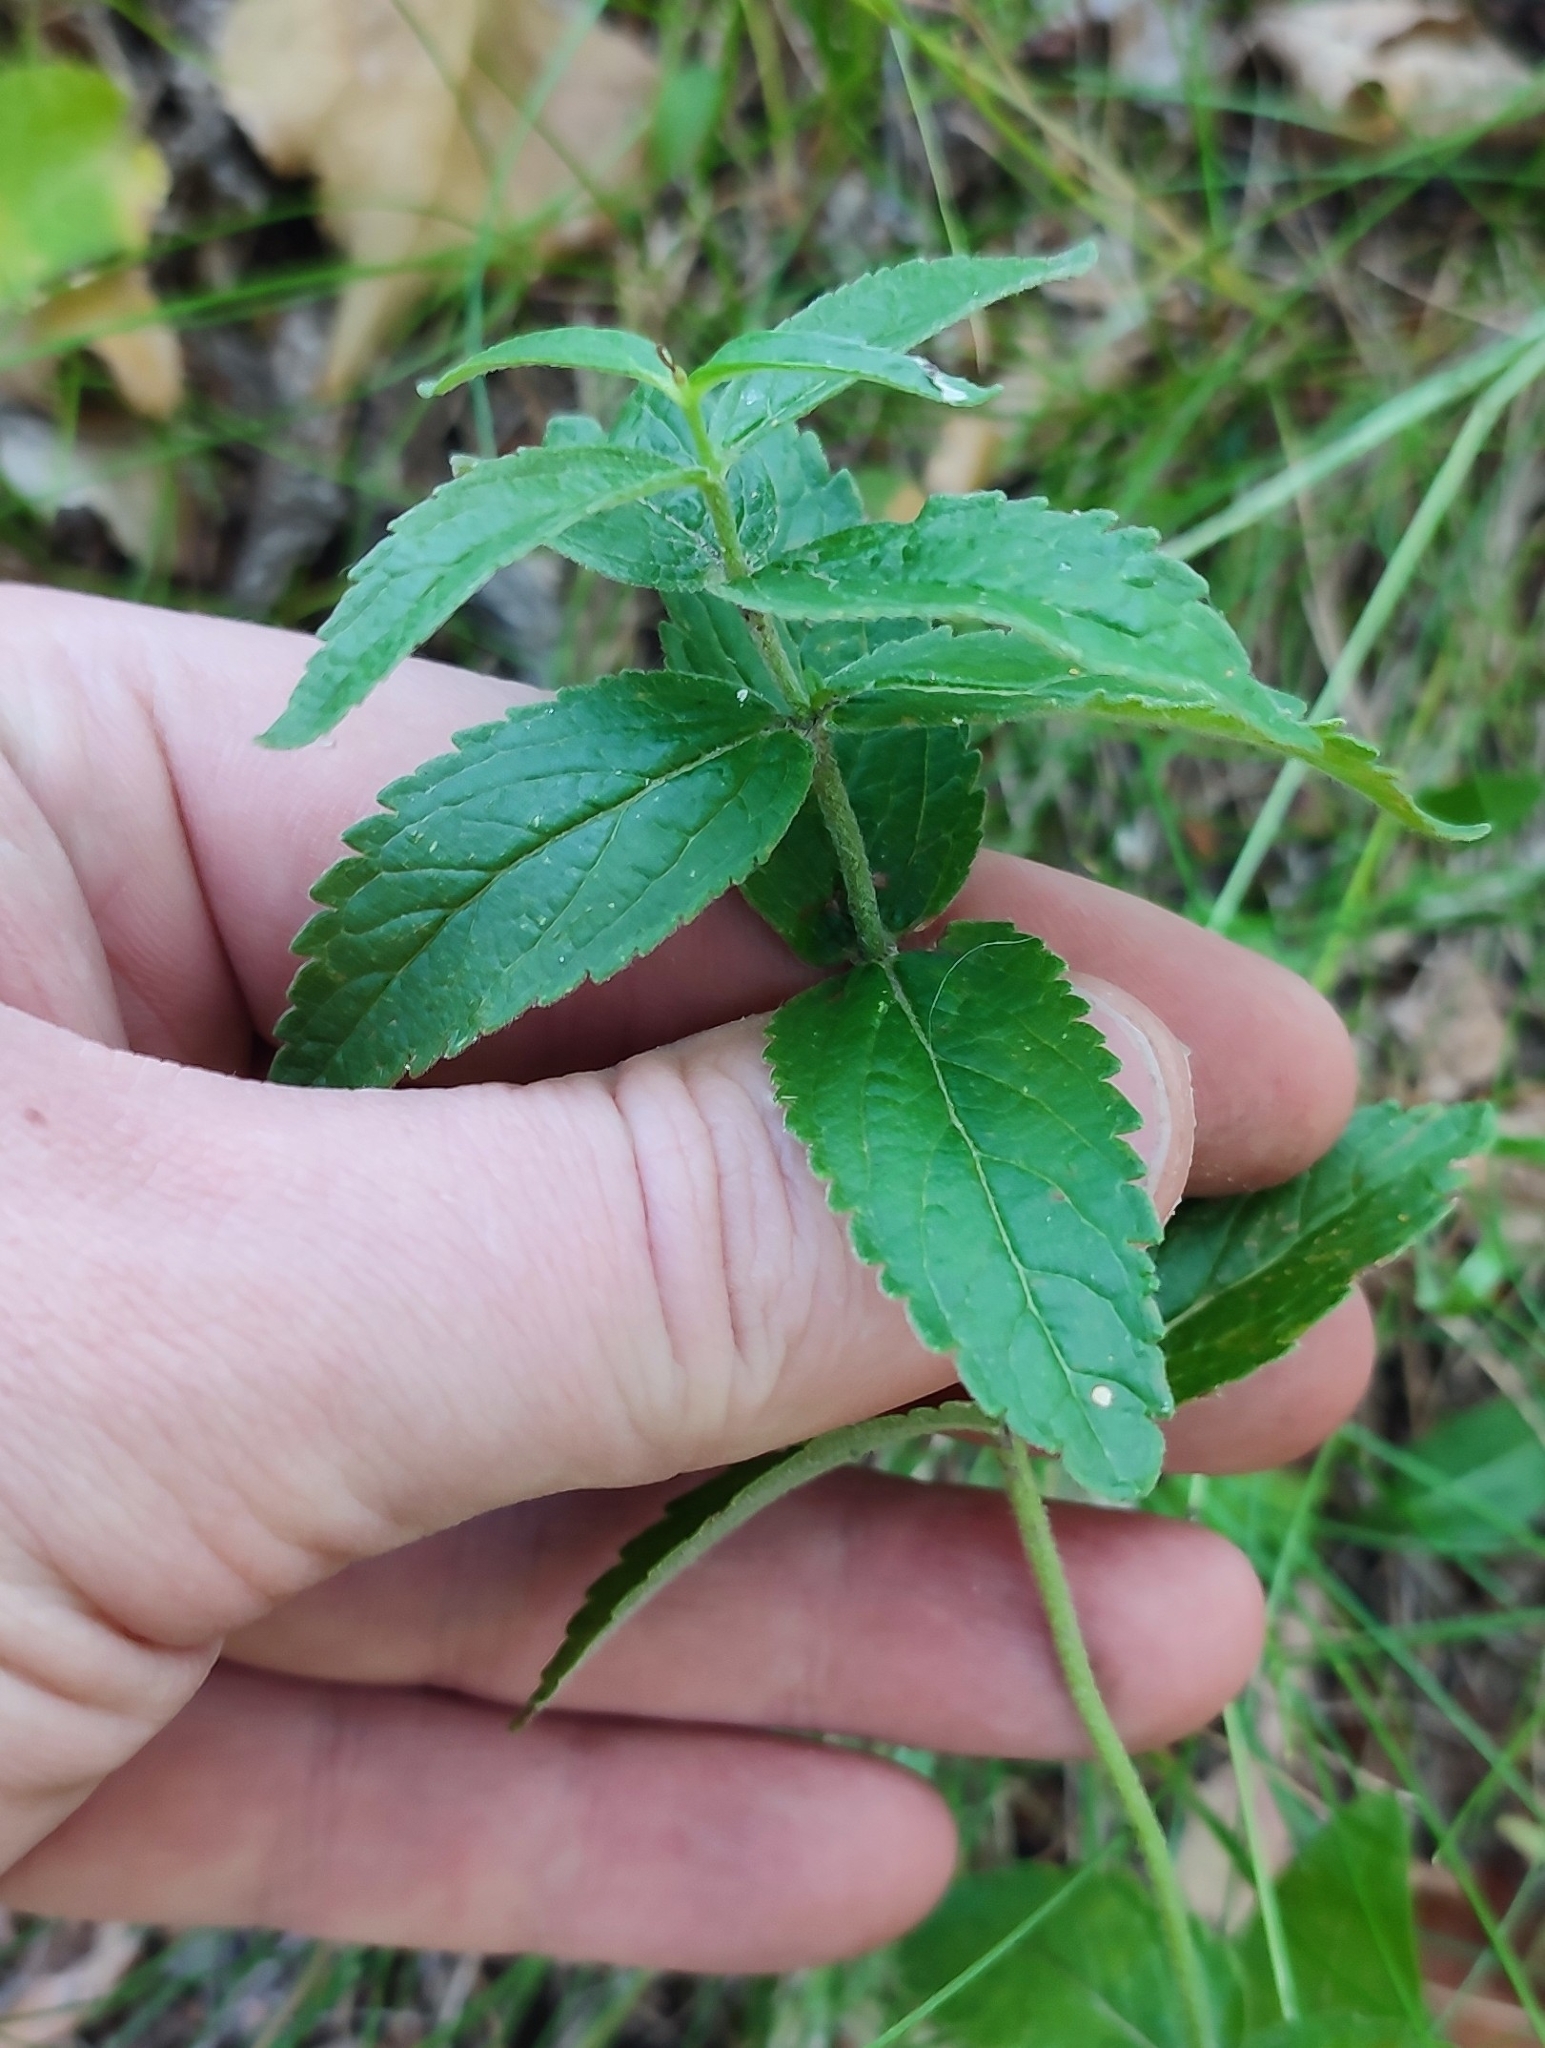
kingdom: Plantae
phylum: Tracheophyta
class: Magnoliopsida
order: Lamiales
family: Plantaginaceae
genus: Veronica
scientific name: Veronica teucrium
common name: Large speedwell
